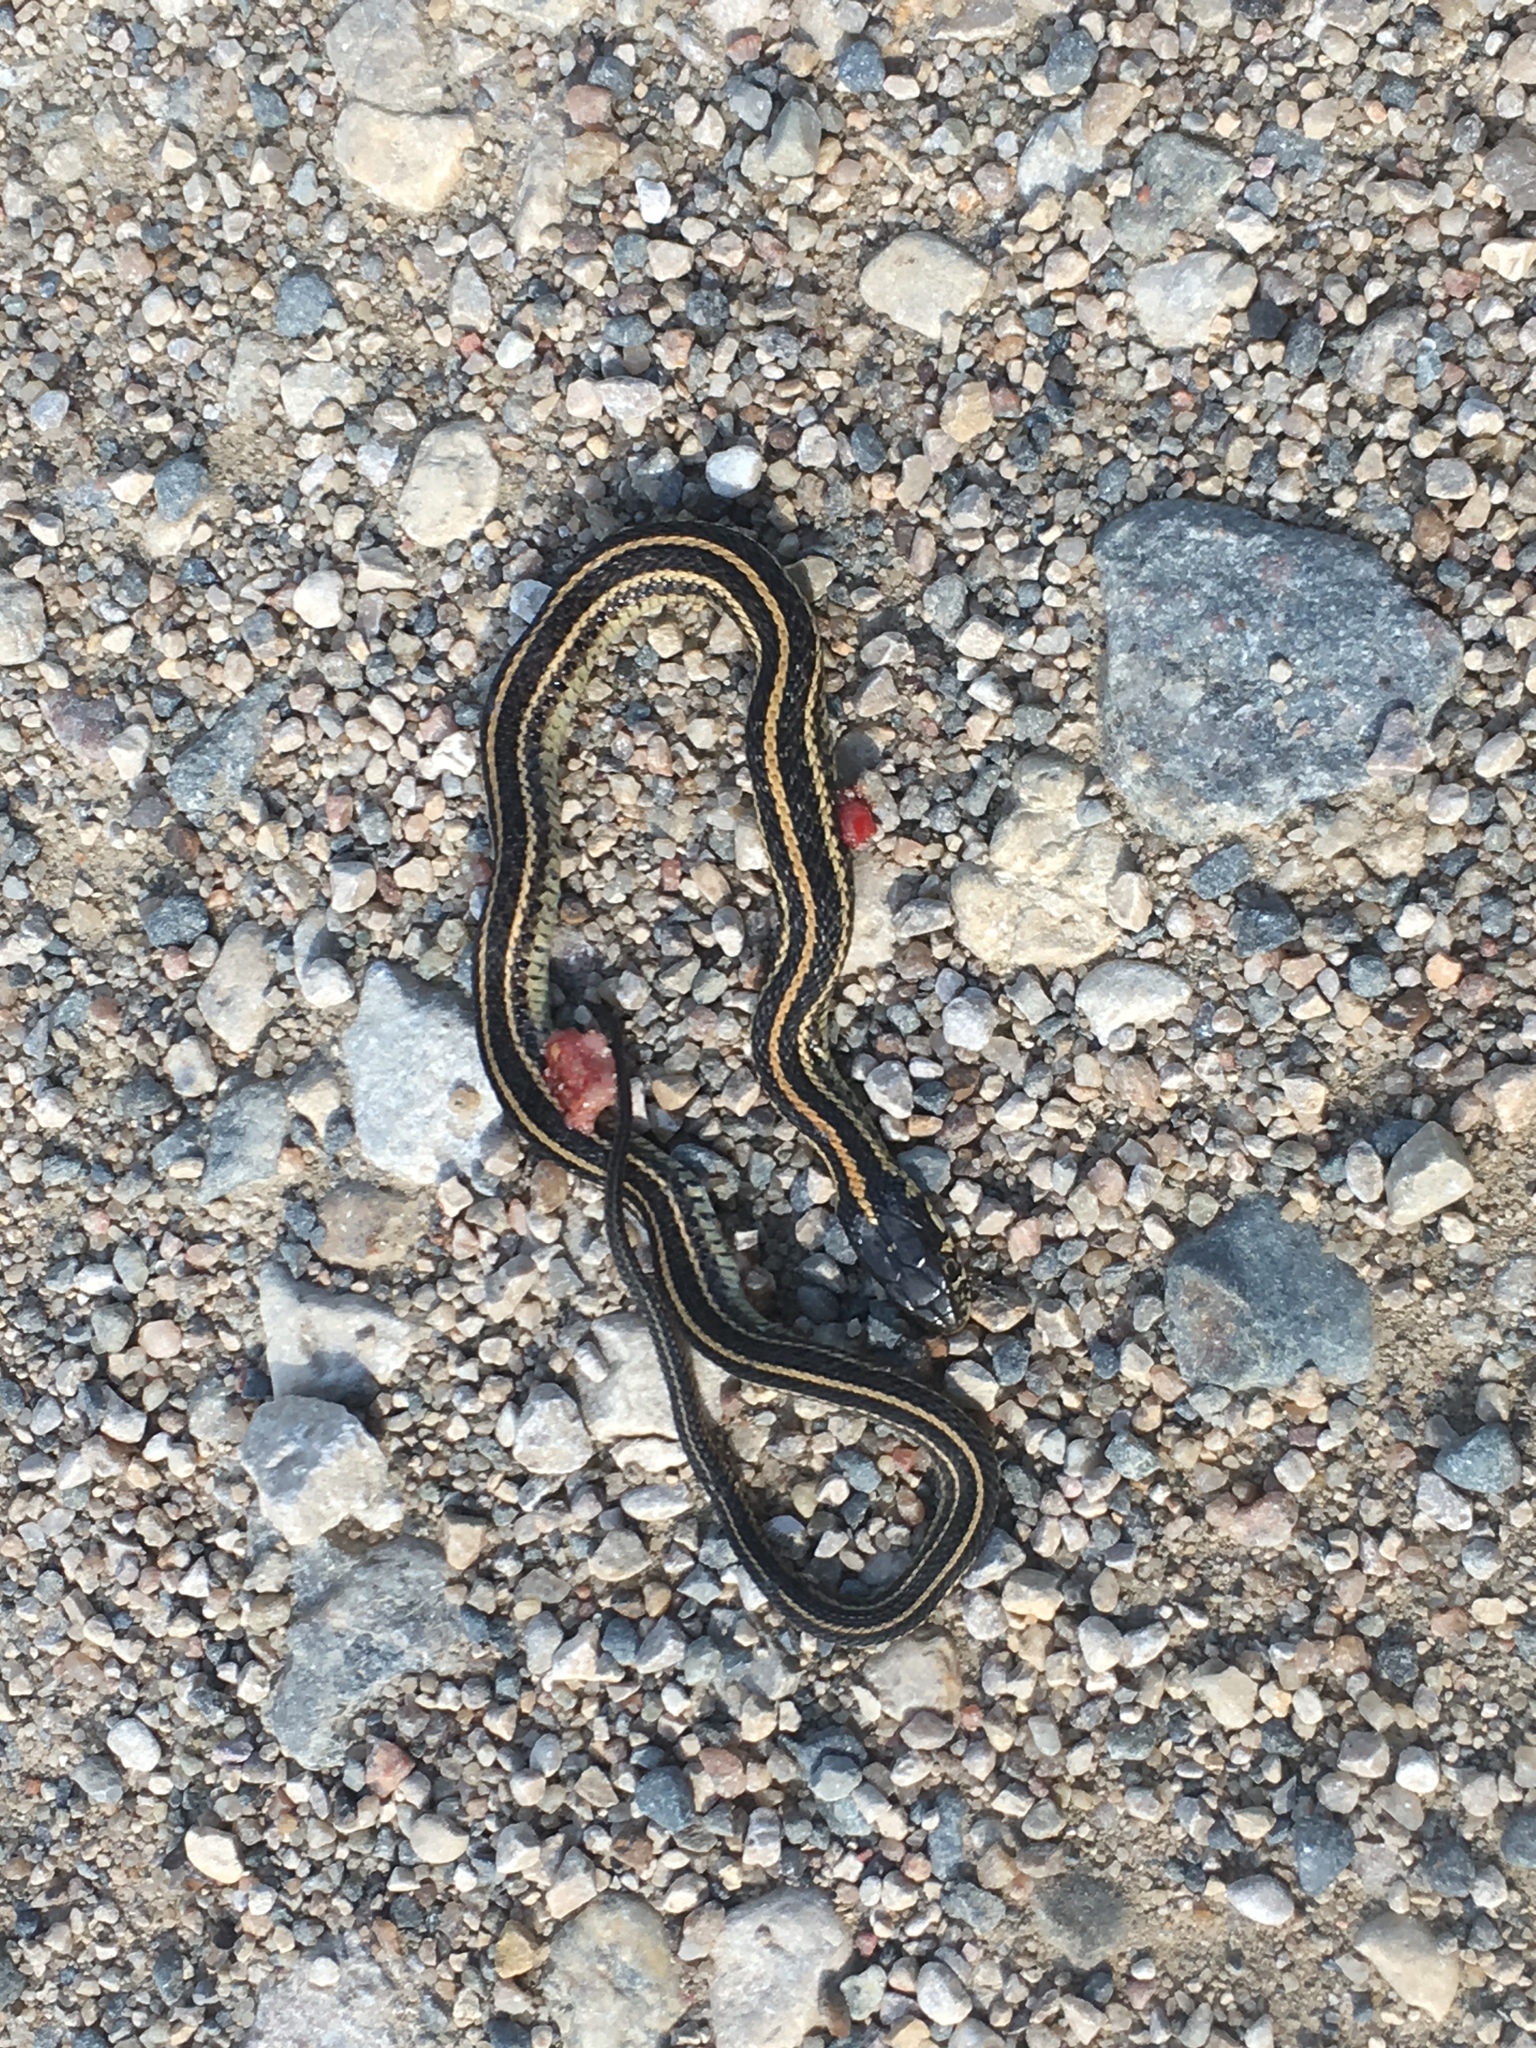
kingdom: Animalia
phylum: Chordata
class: Squamata
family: Colubridae
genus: Thamnophis
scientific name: Thamnophis radix
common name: Plains garter snake
